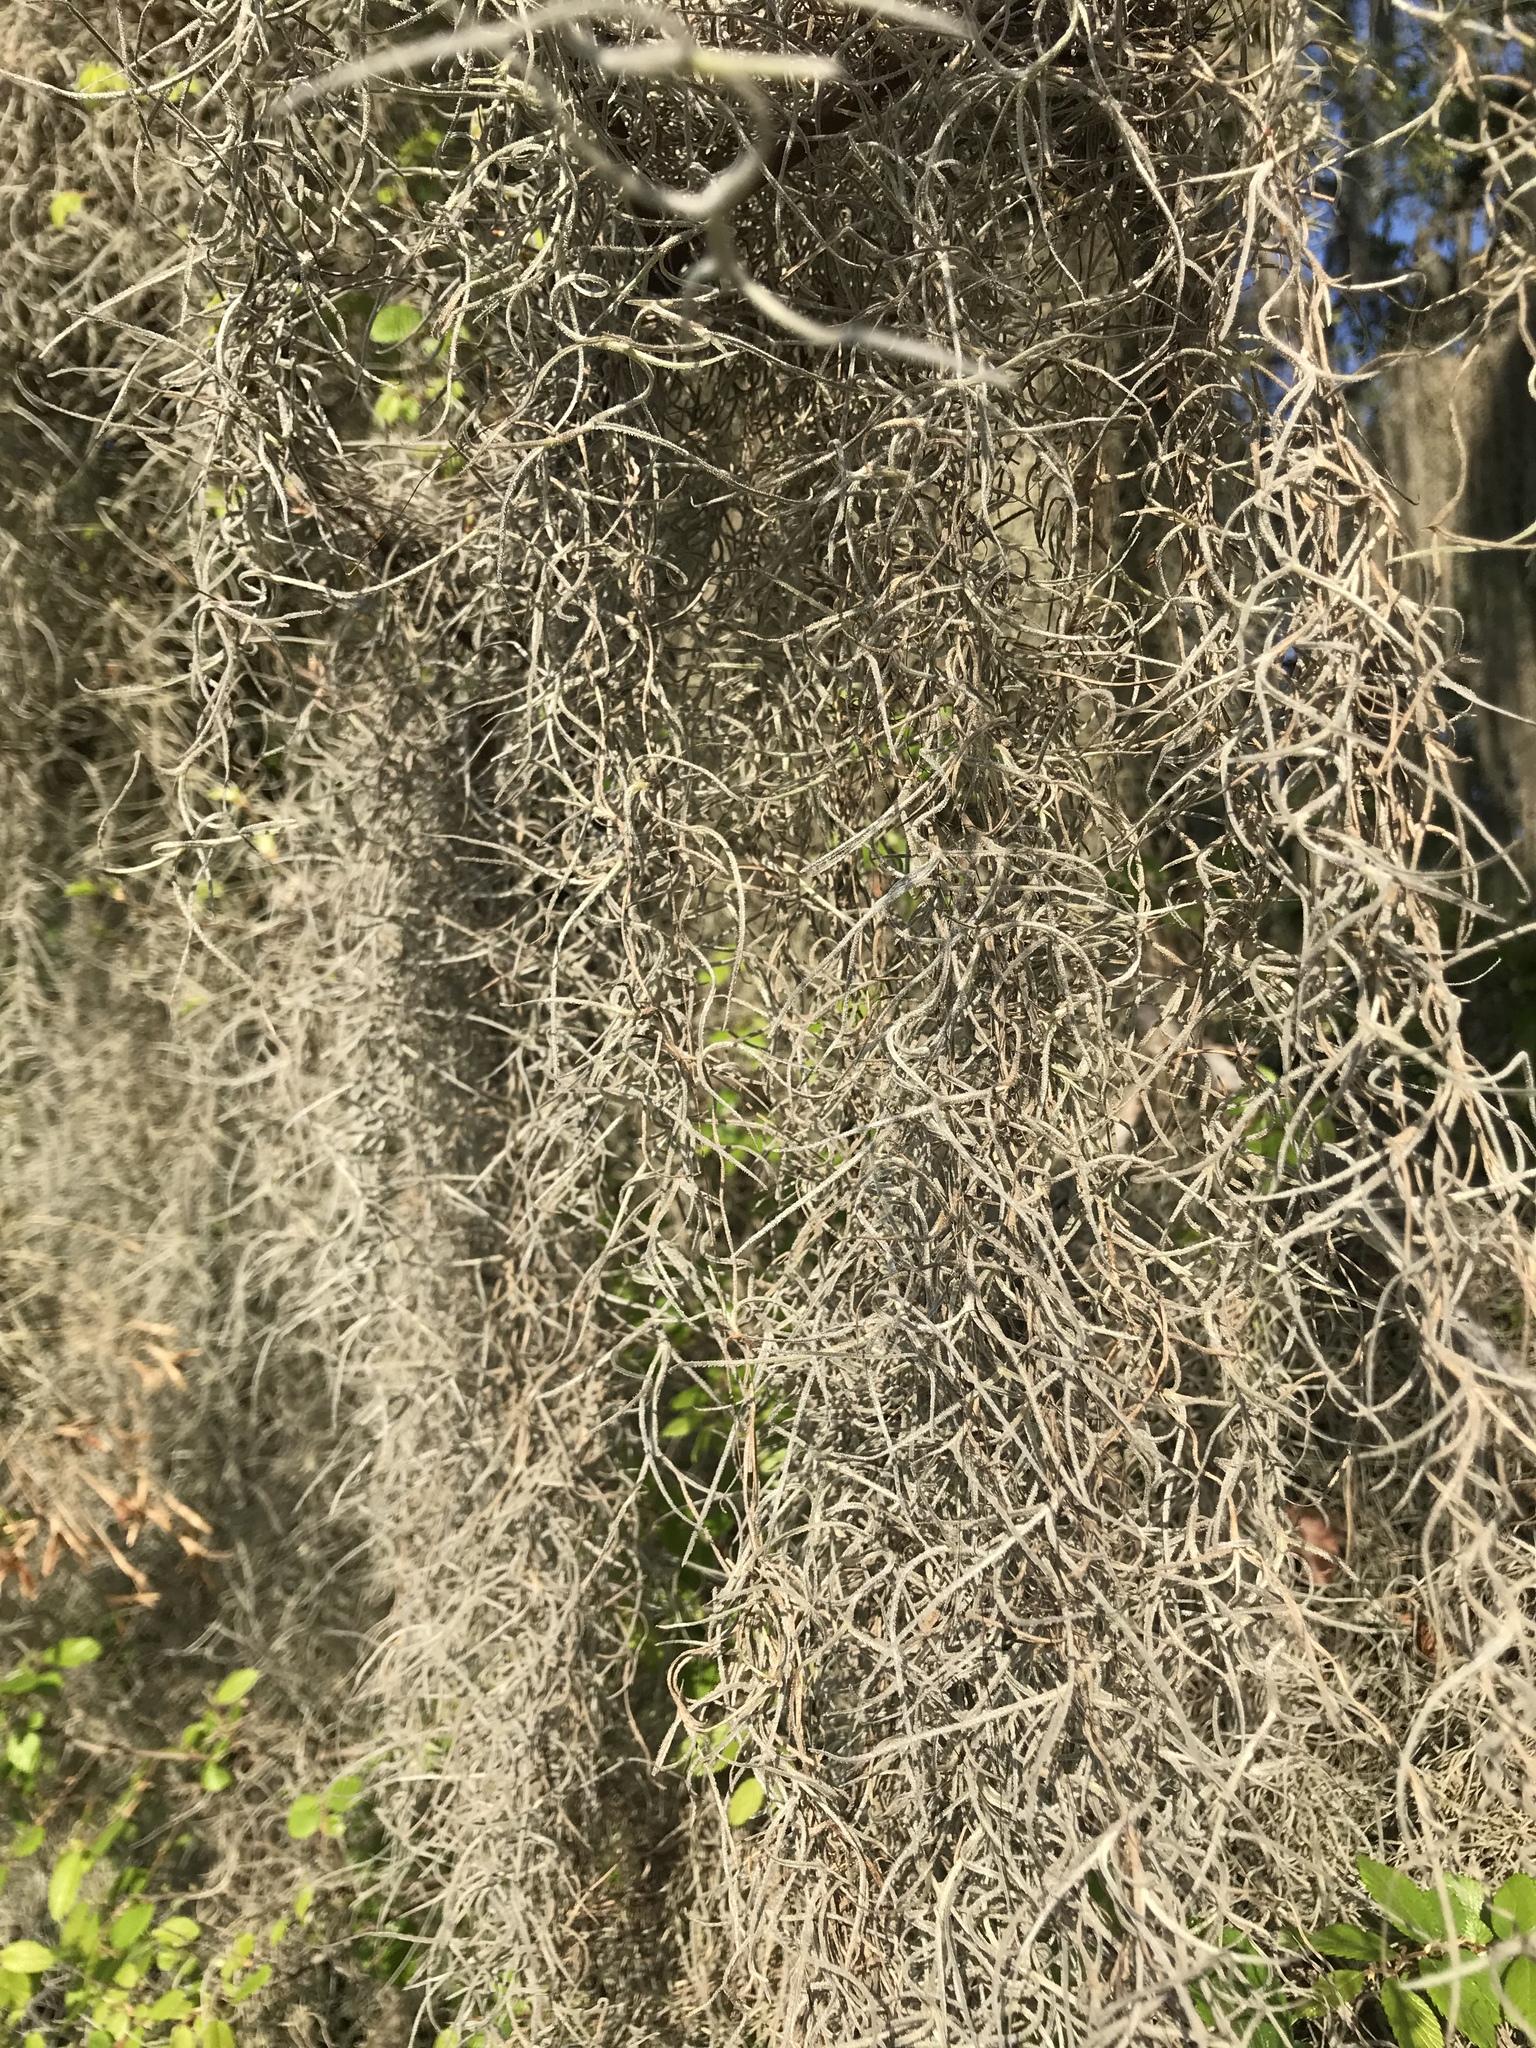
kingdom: Plantae
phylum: Tracheophyta
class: Liliopsida
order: Poales
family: Bromeliaceae
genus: Tillandsia
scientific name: Tillandsia usneoides
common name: Spanish moss
